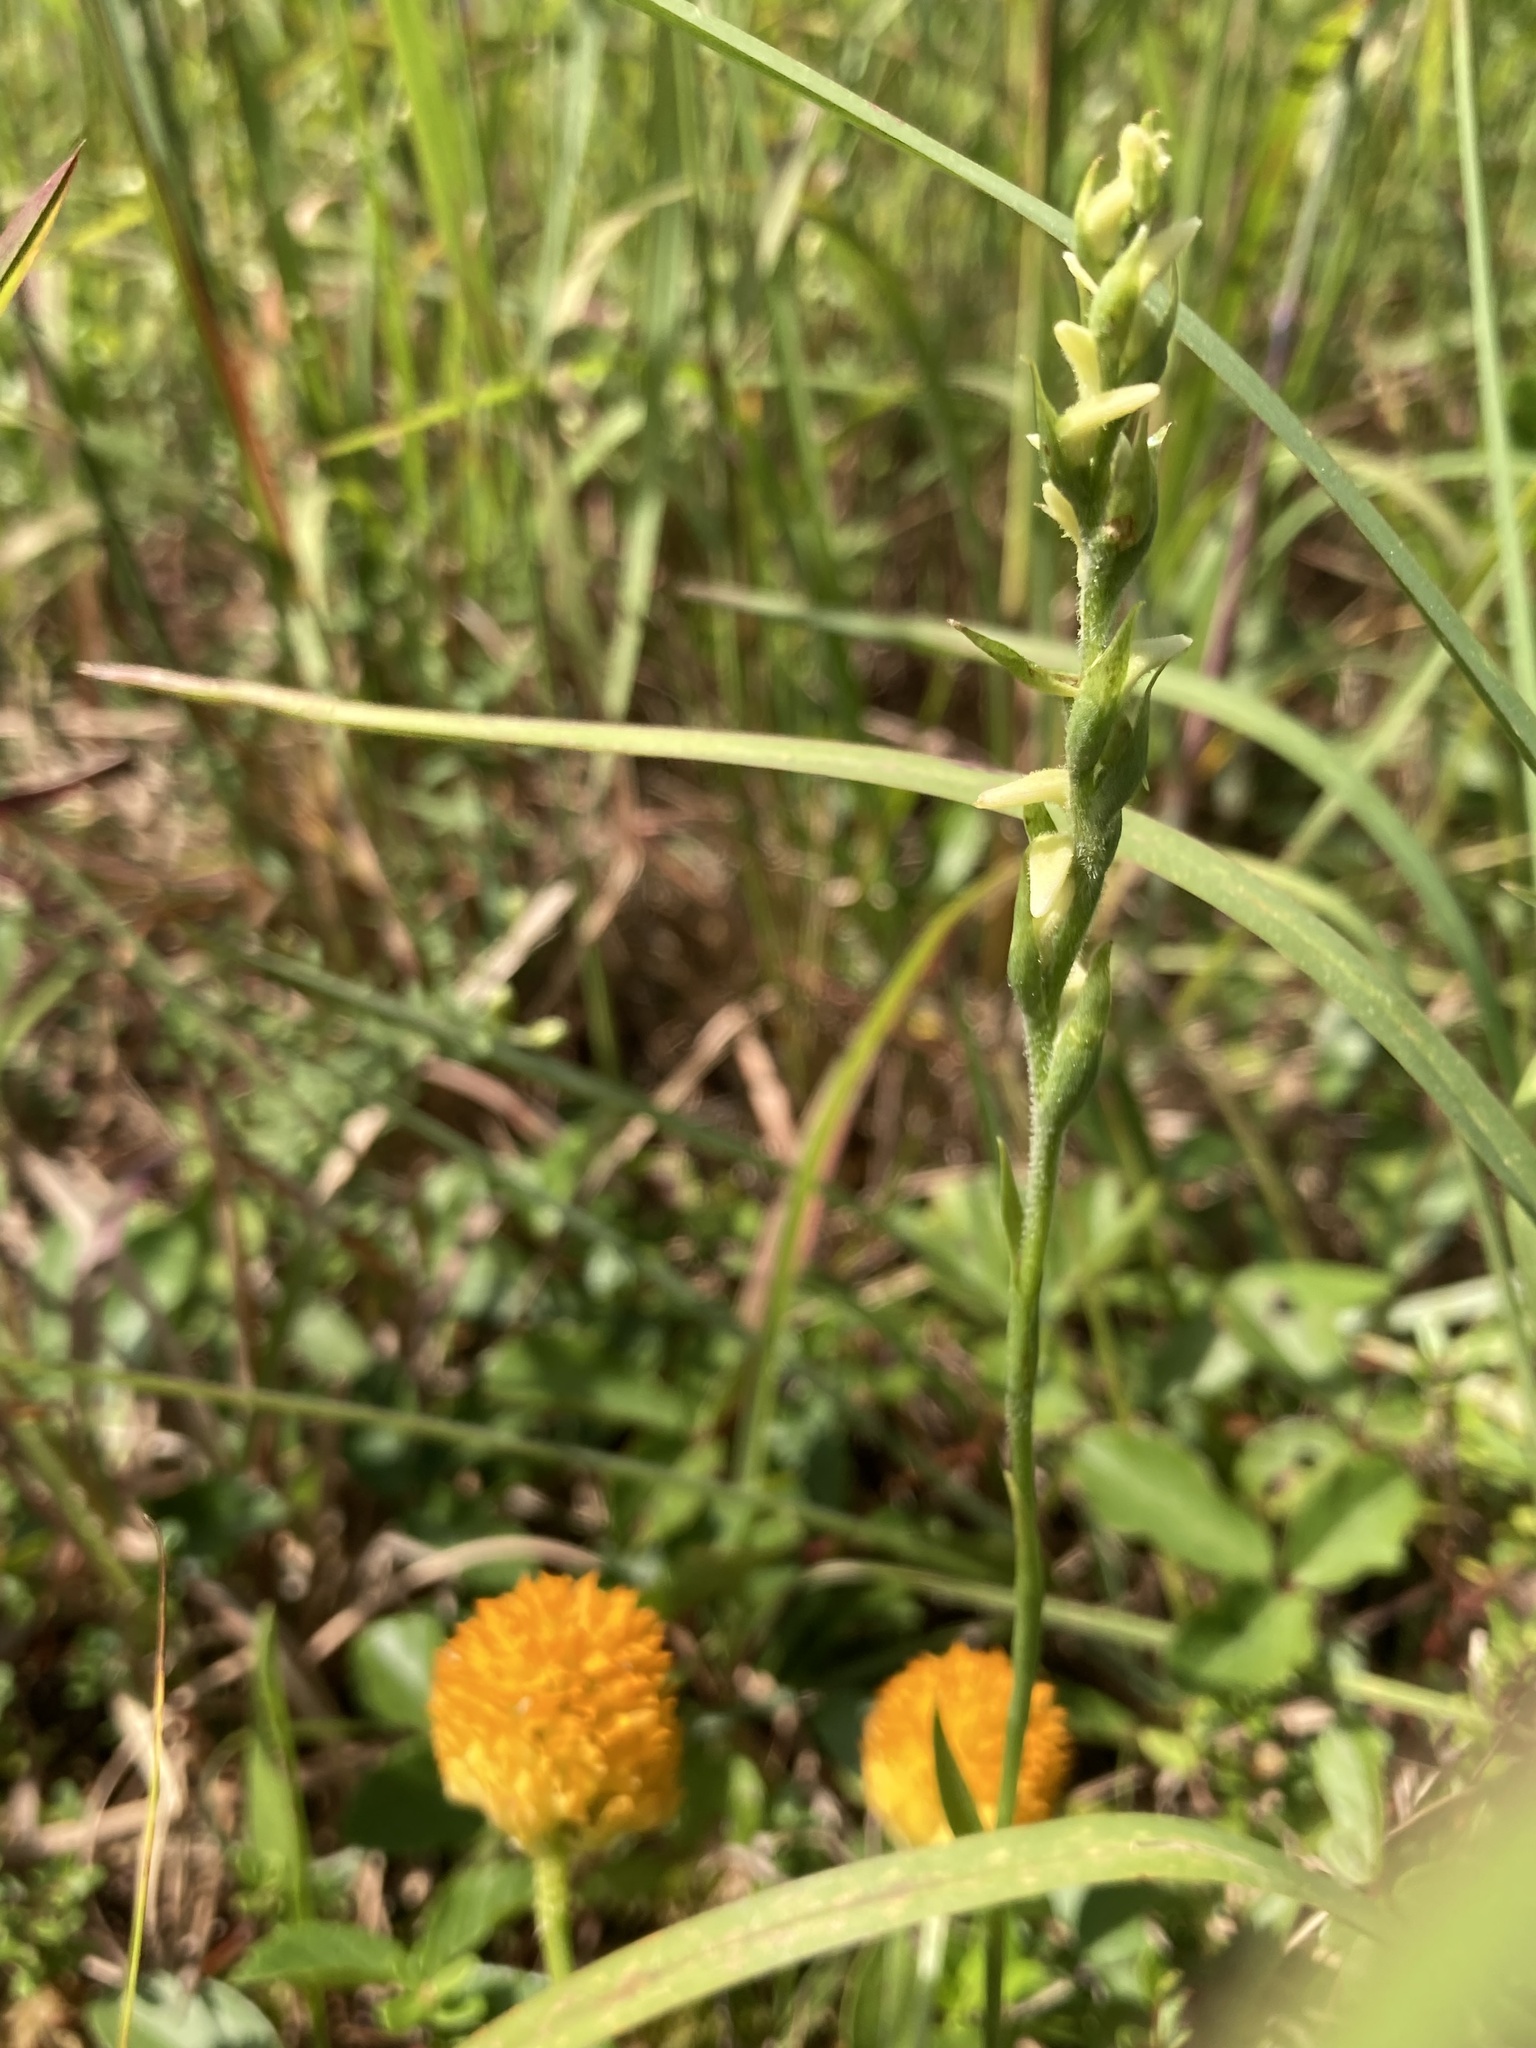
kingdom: Plantae
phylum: Tracheophyta
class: Magnoliopsida
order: Fabales
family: Polygalaceae
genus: Polygala
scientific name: Polygala lutea
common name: Orange milkwort
